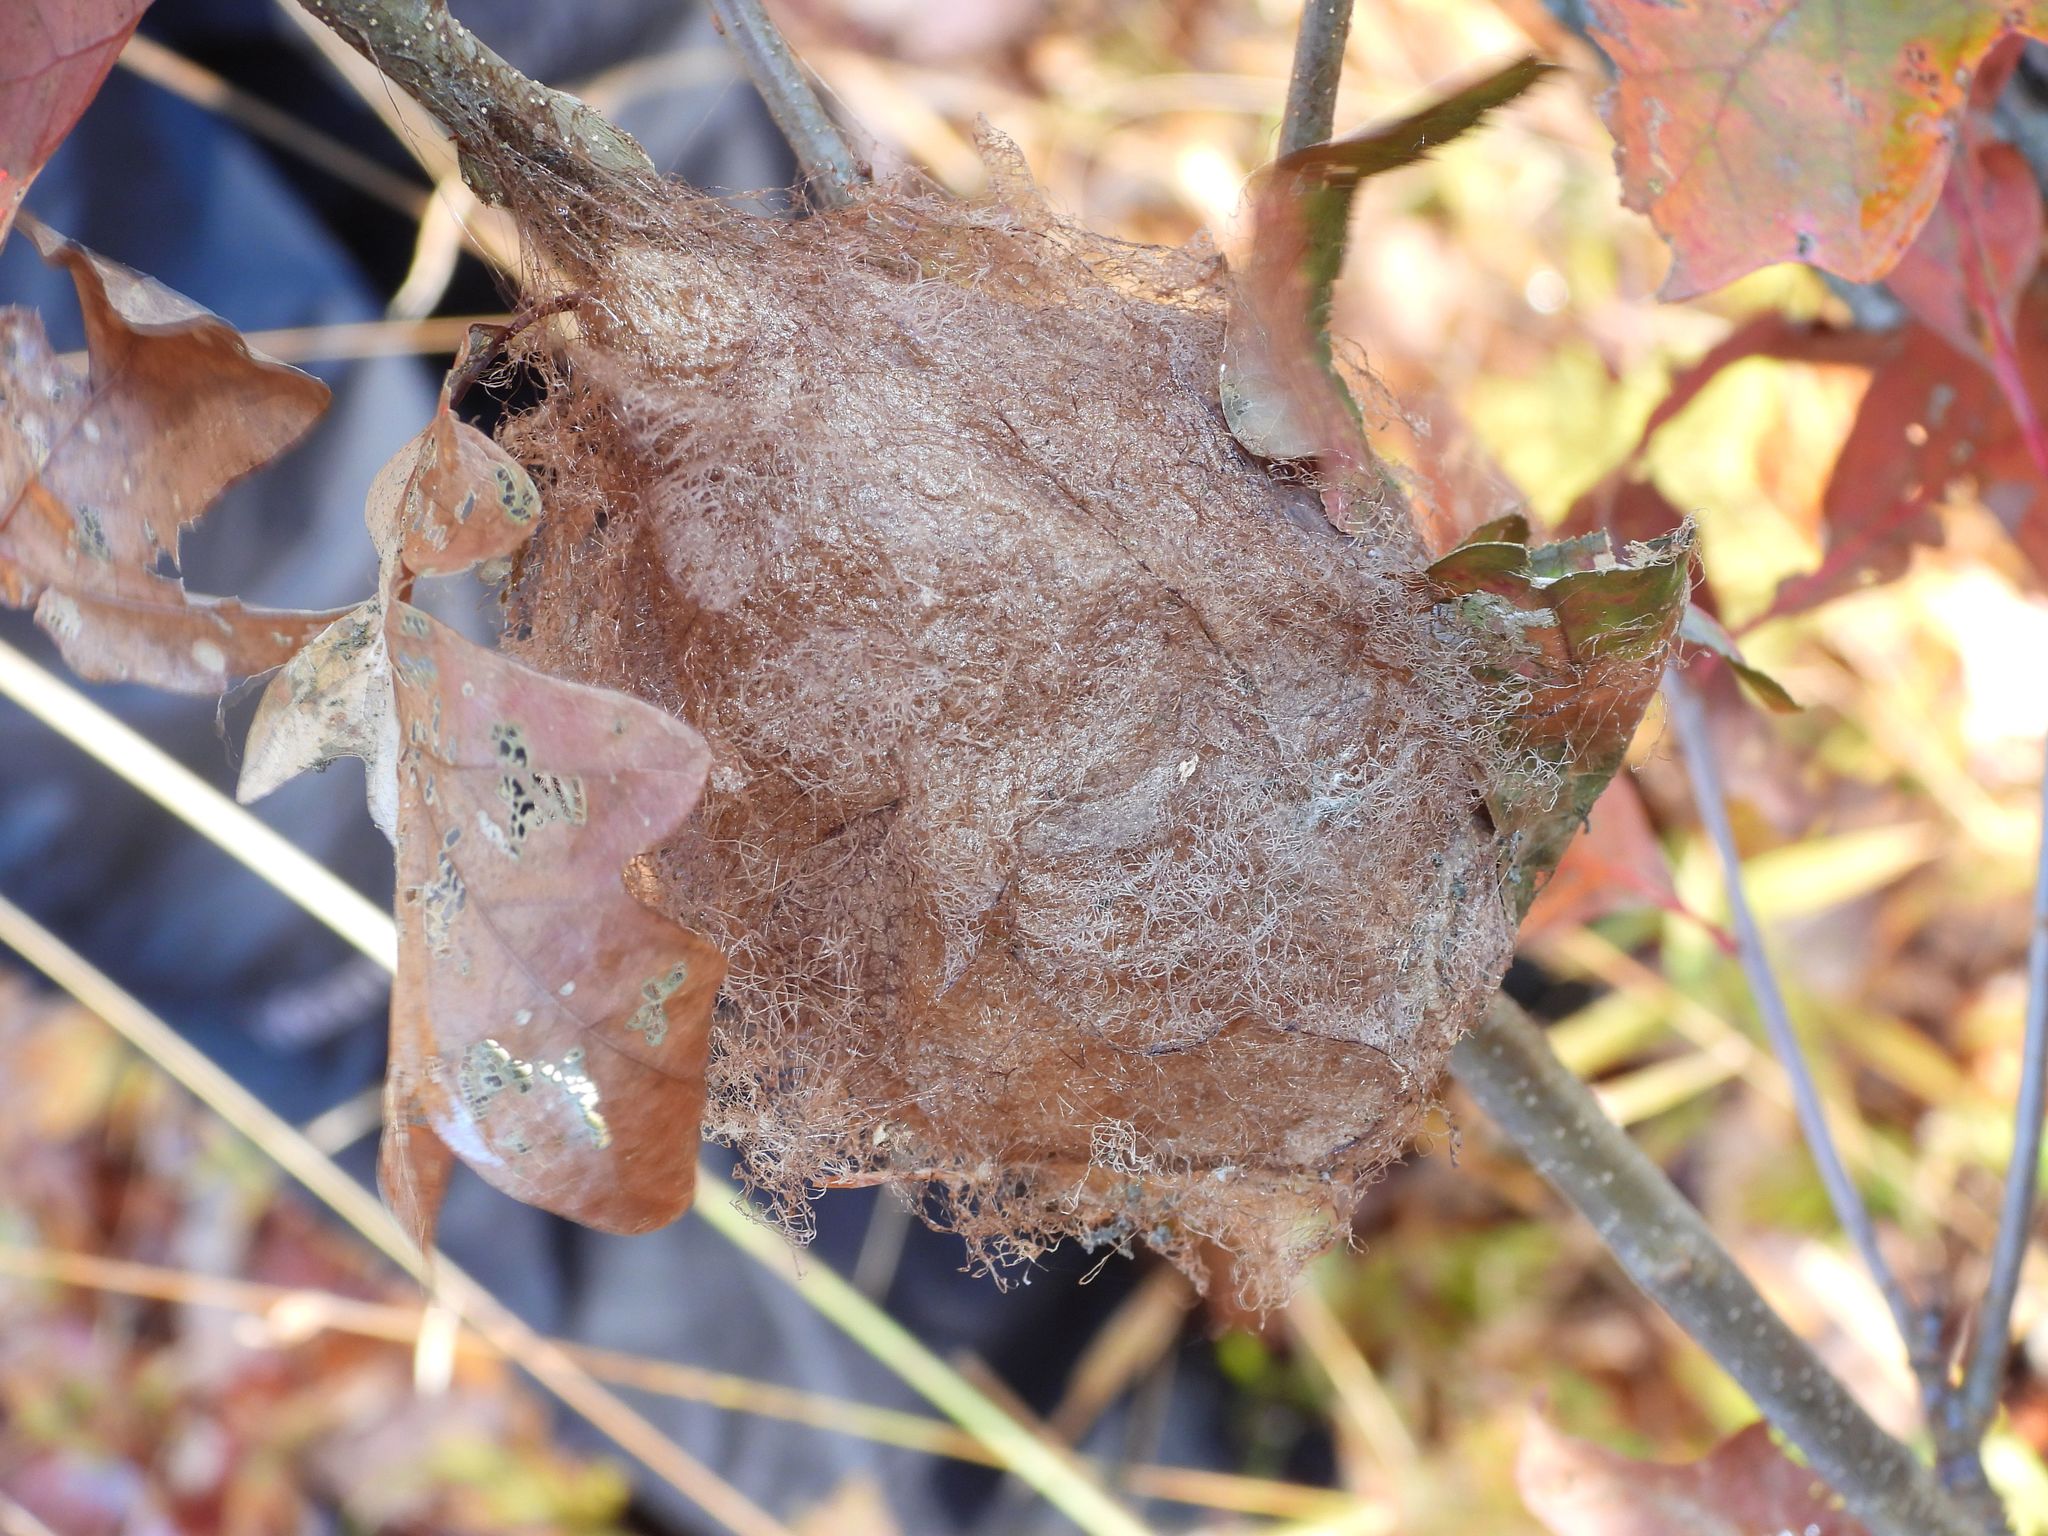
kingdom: Animalia
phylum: Arthropoda
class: Insecta
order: Lepidoptera
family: Saturniidae
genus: Hyalophora
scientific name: Hyalophora cecropia
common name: Cecropia silkmoth
